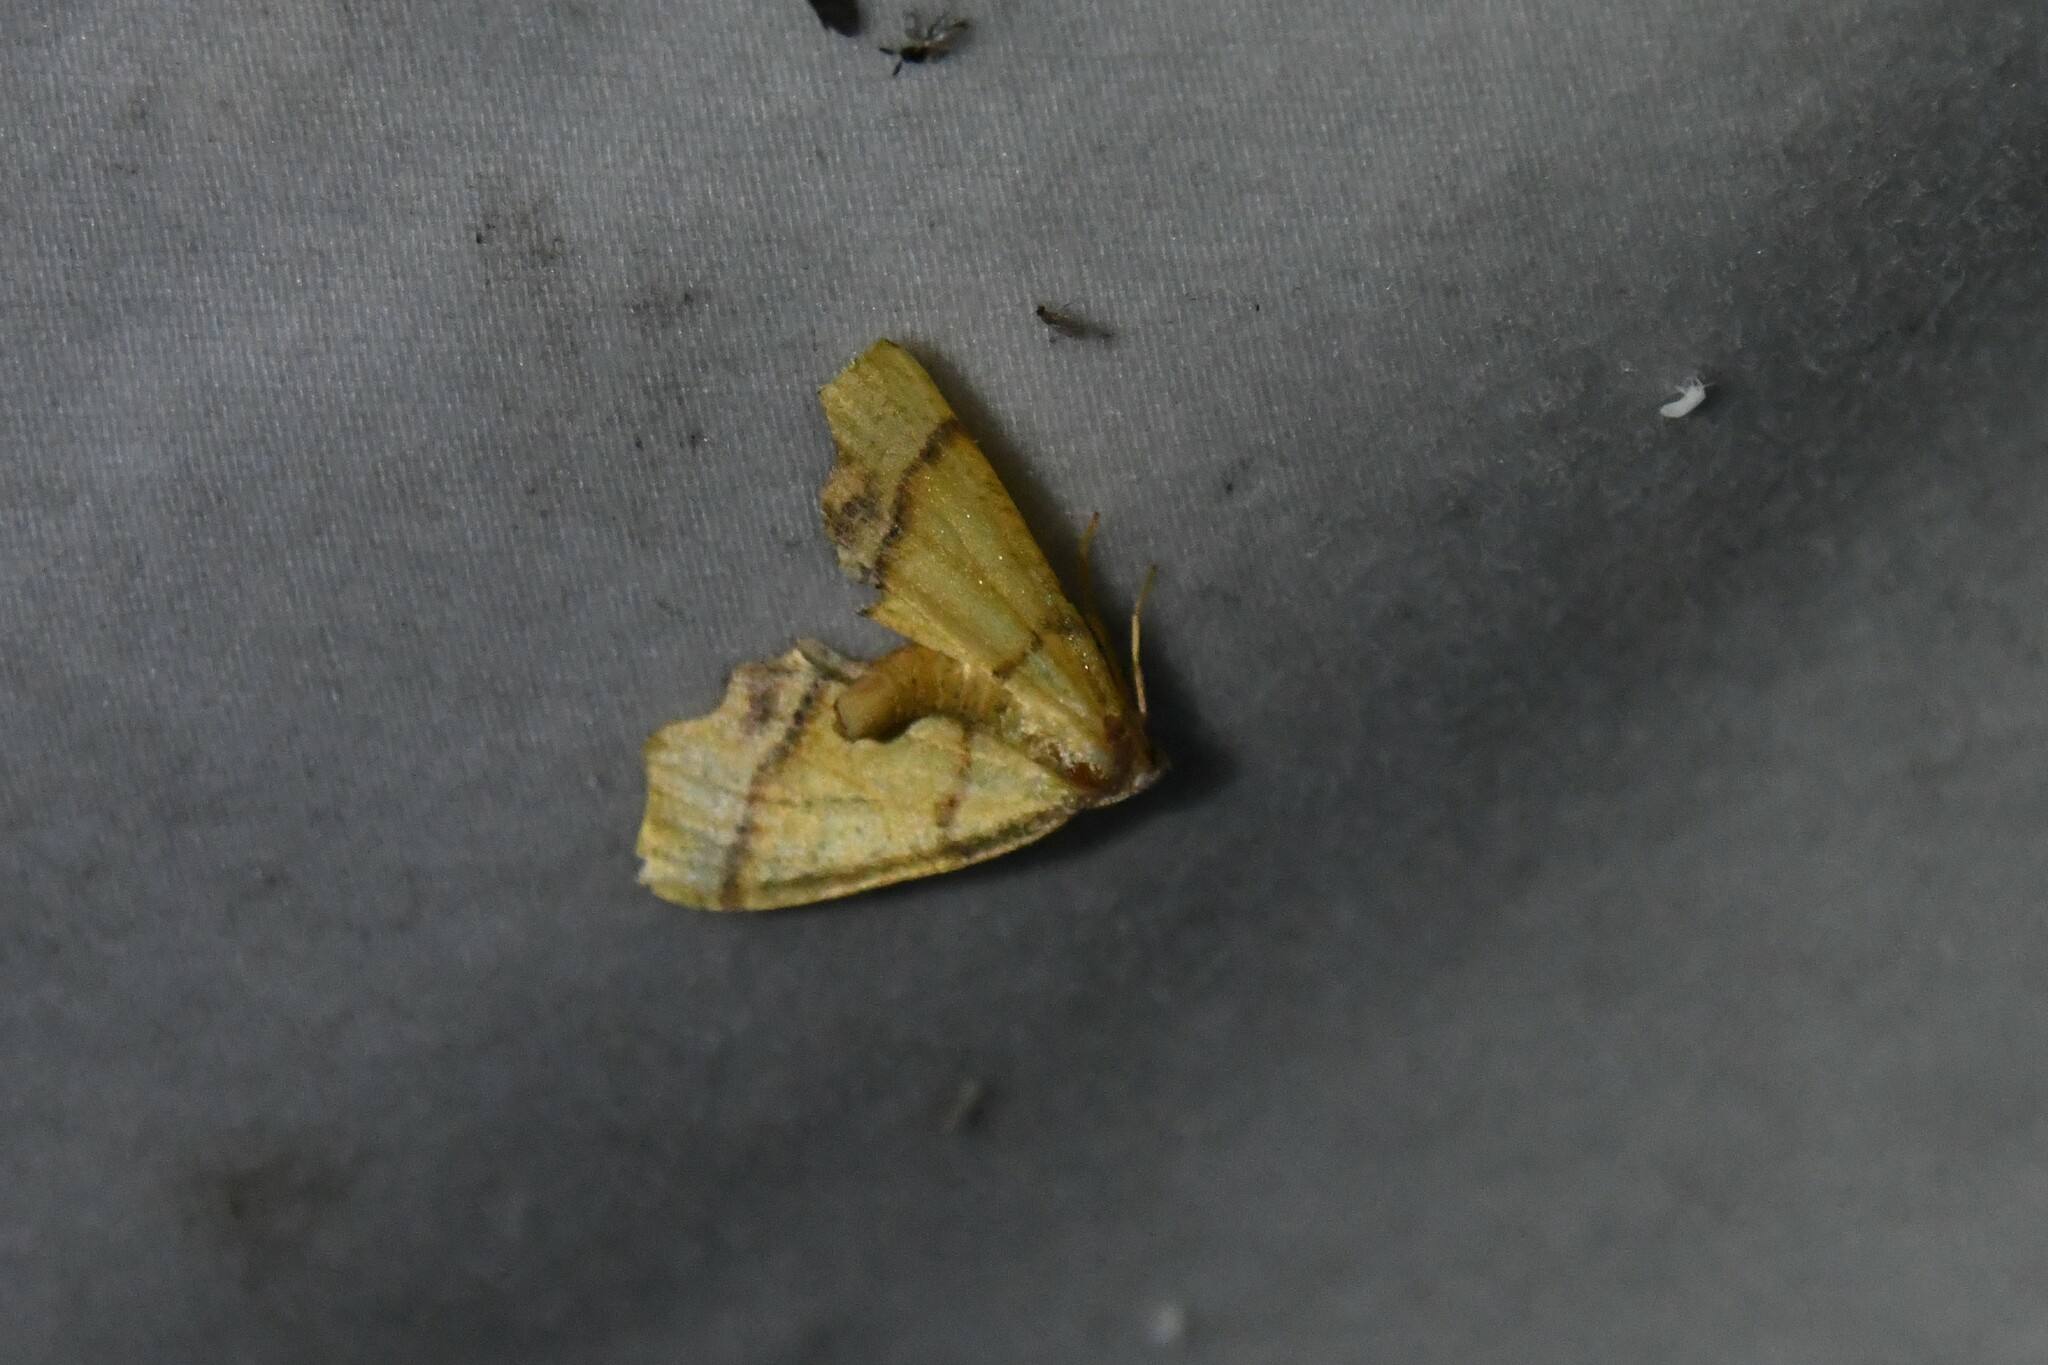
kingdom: Animalia
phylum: Arthropoda
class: Insecta
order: Lepidoptera
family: Geometridae
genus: Plagodis
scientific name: Plagodis phlogosaria
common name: Straight-lined plagodis
